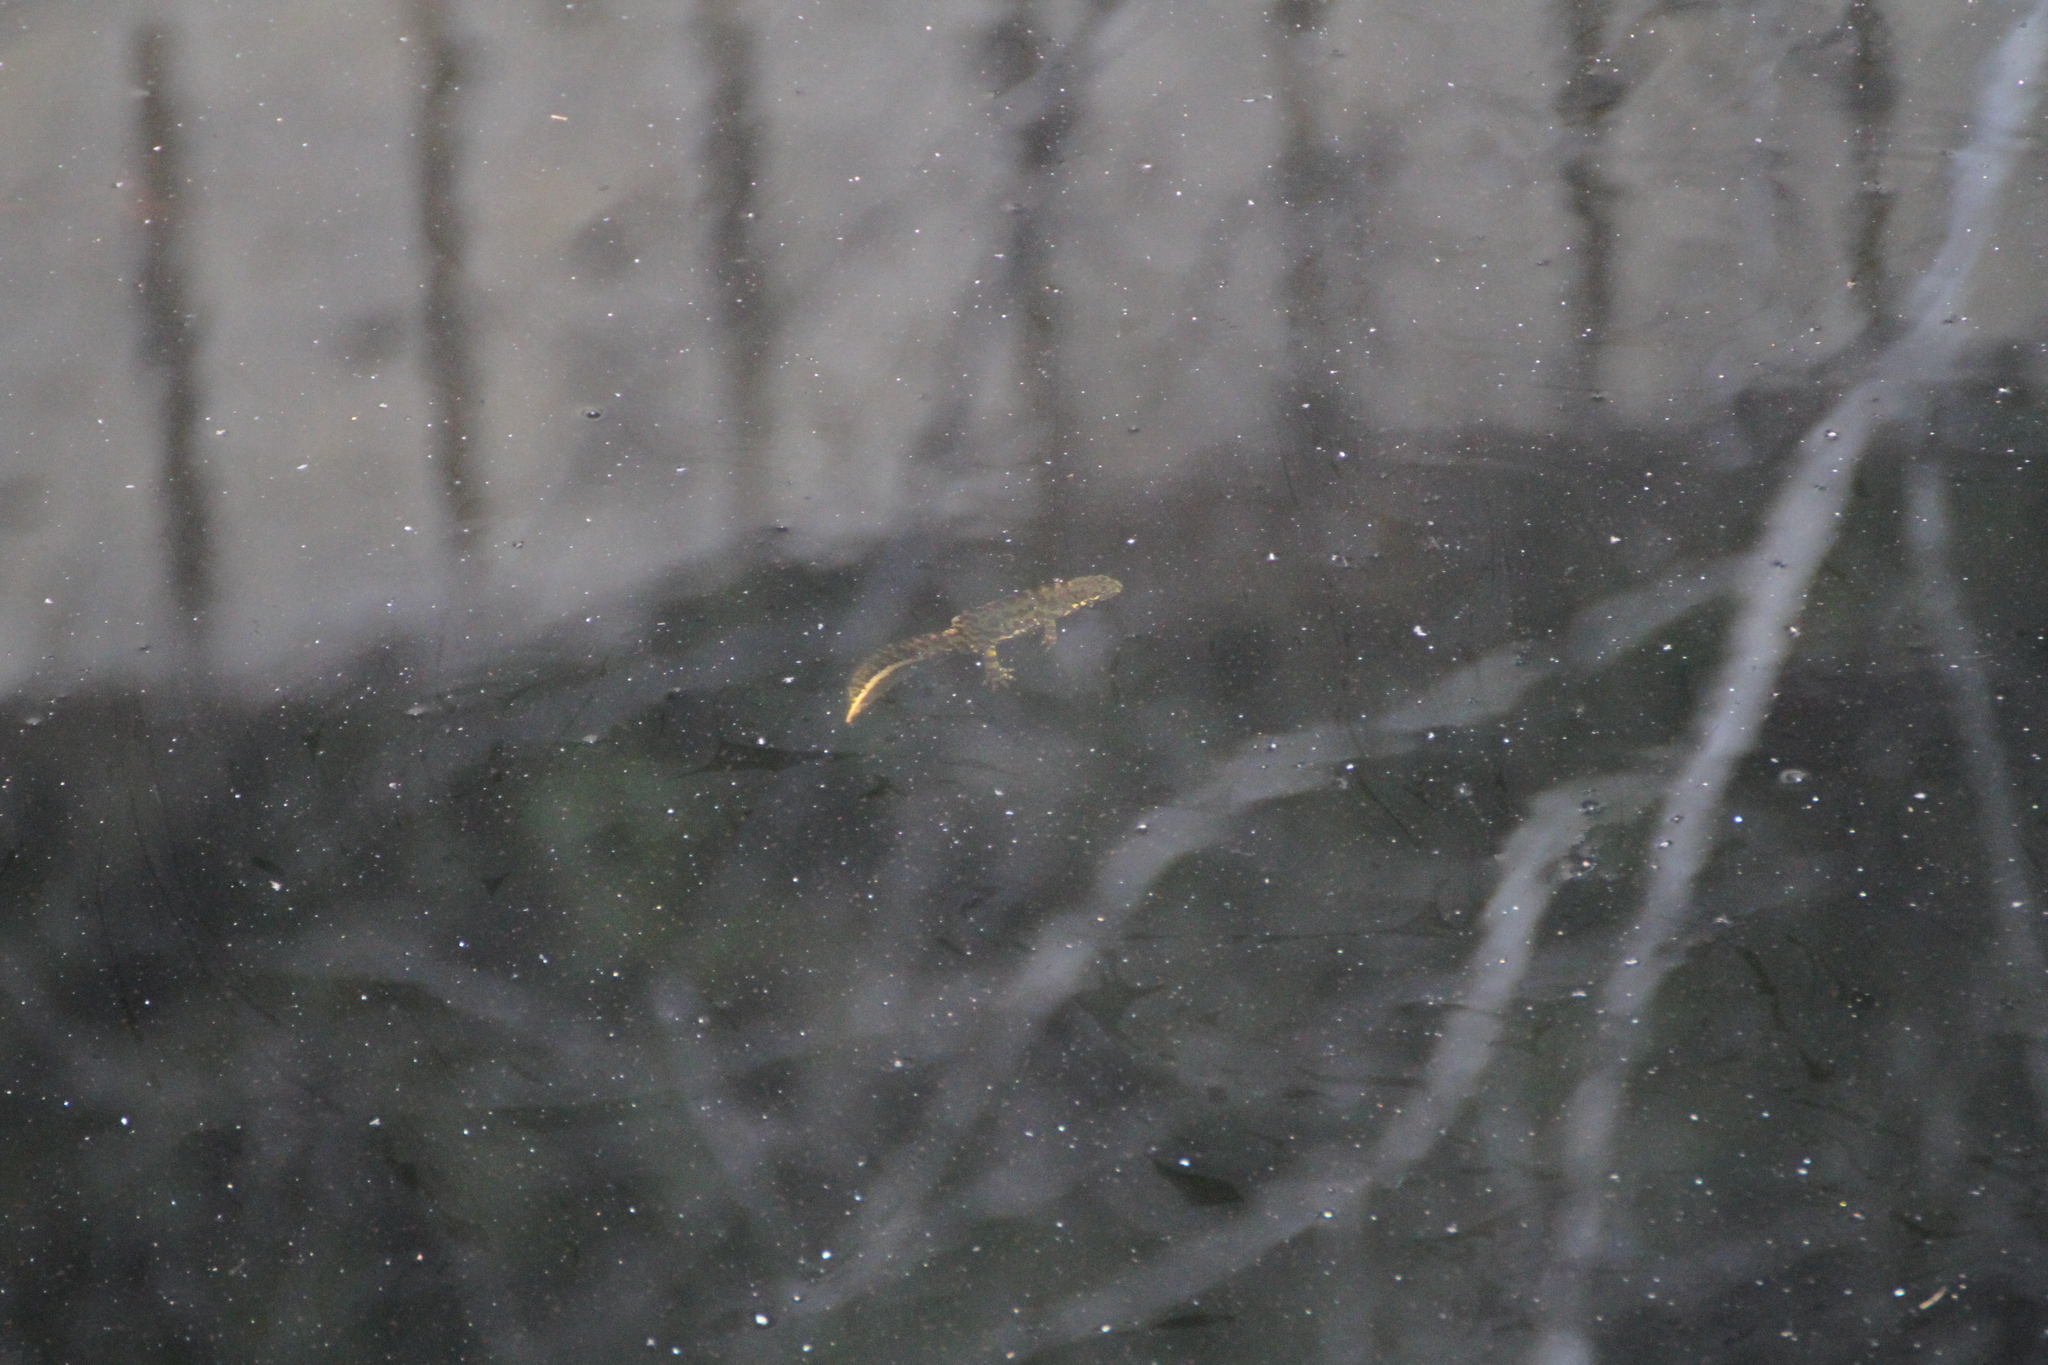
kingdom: Animalia
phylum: Chordata
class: Amphibia
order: Caudata
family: Salamandridae
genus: Triturus
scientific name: Triturus marmoratus
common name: Marbled newt
